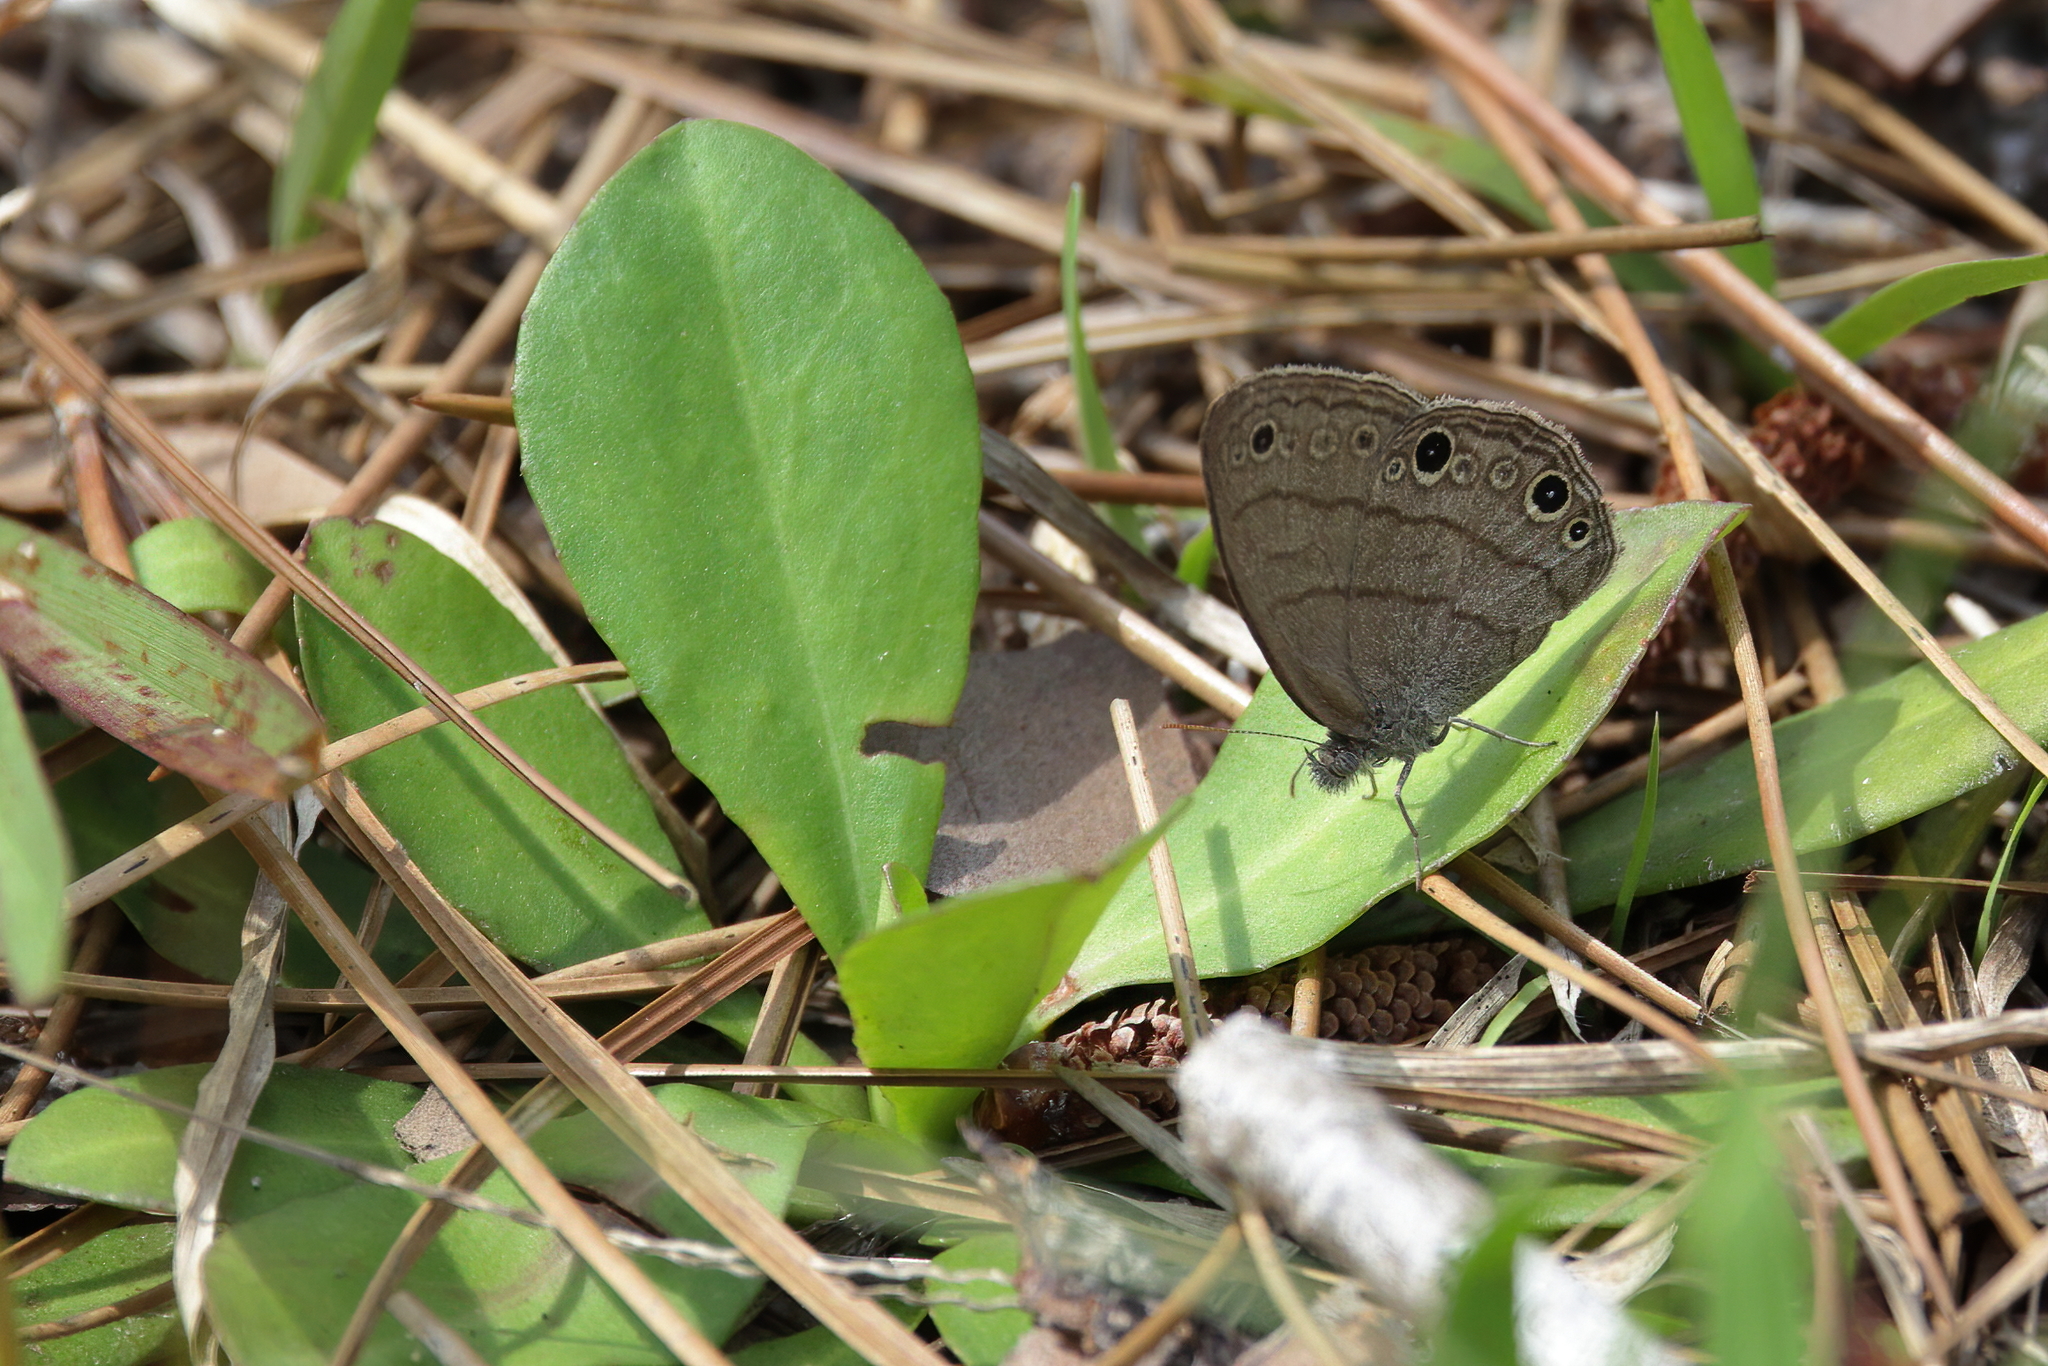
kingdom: Animalia
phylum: Arthropoda
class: Insecta
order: Lepidoptera
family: Nymphalidae
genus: Hermeuptychia
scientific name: Hermeuptychia hermes
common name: Hermes satyr
